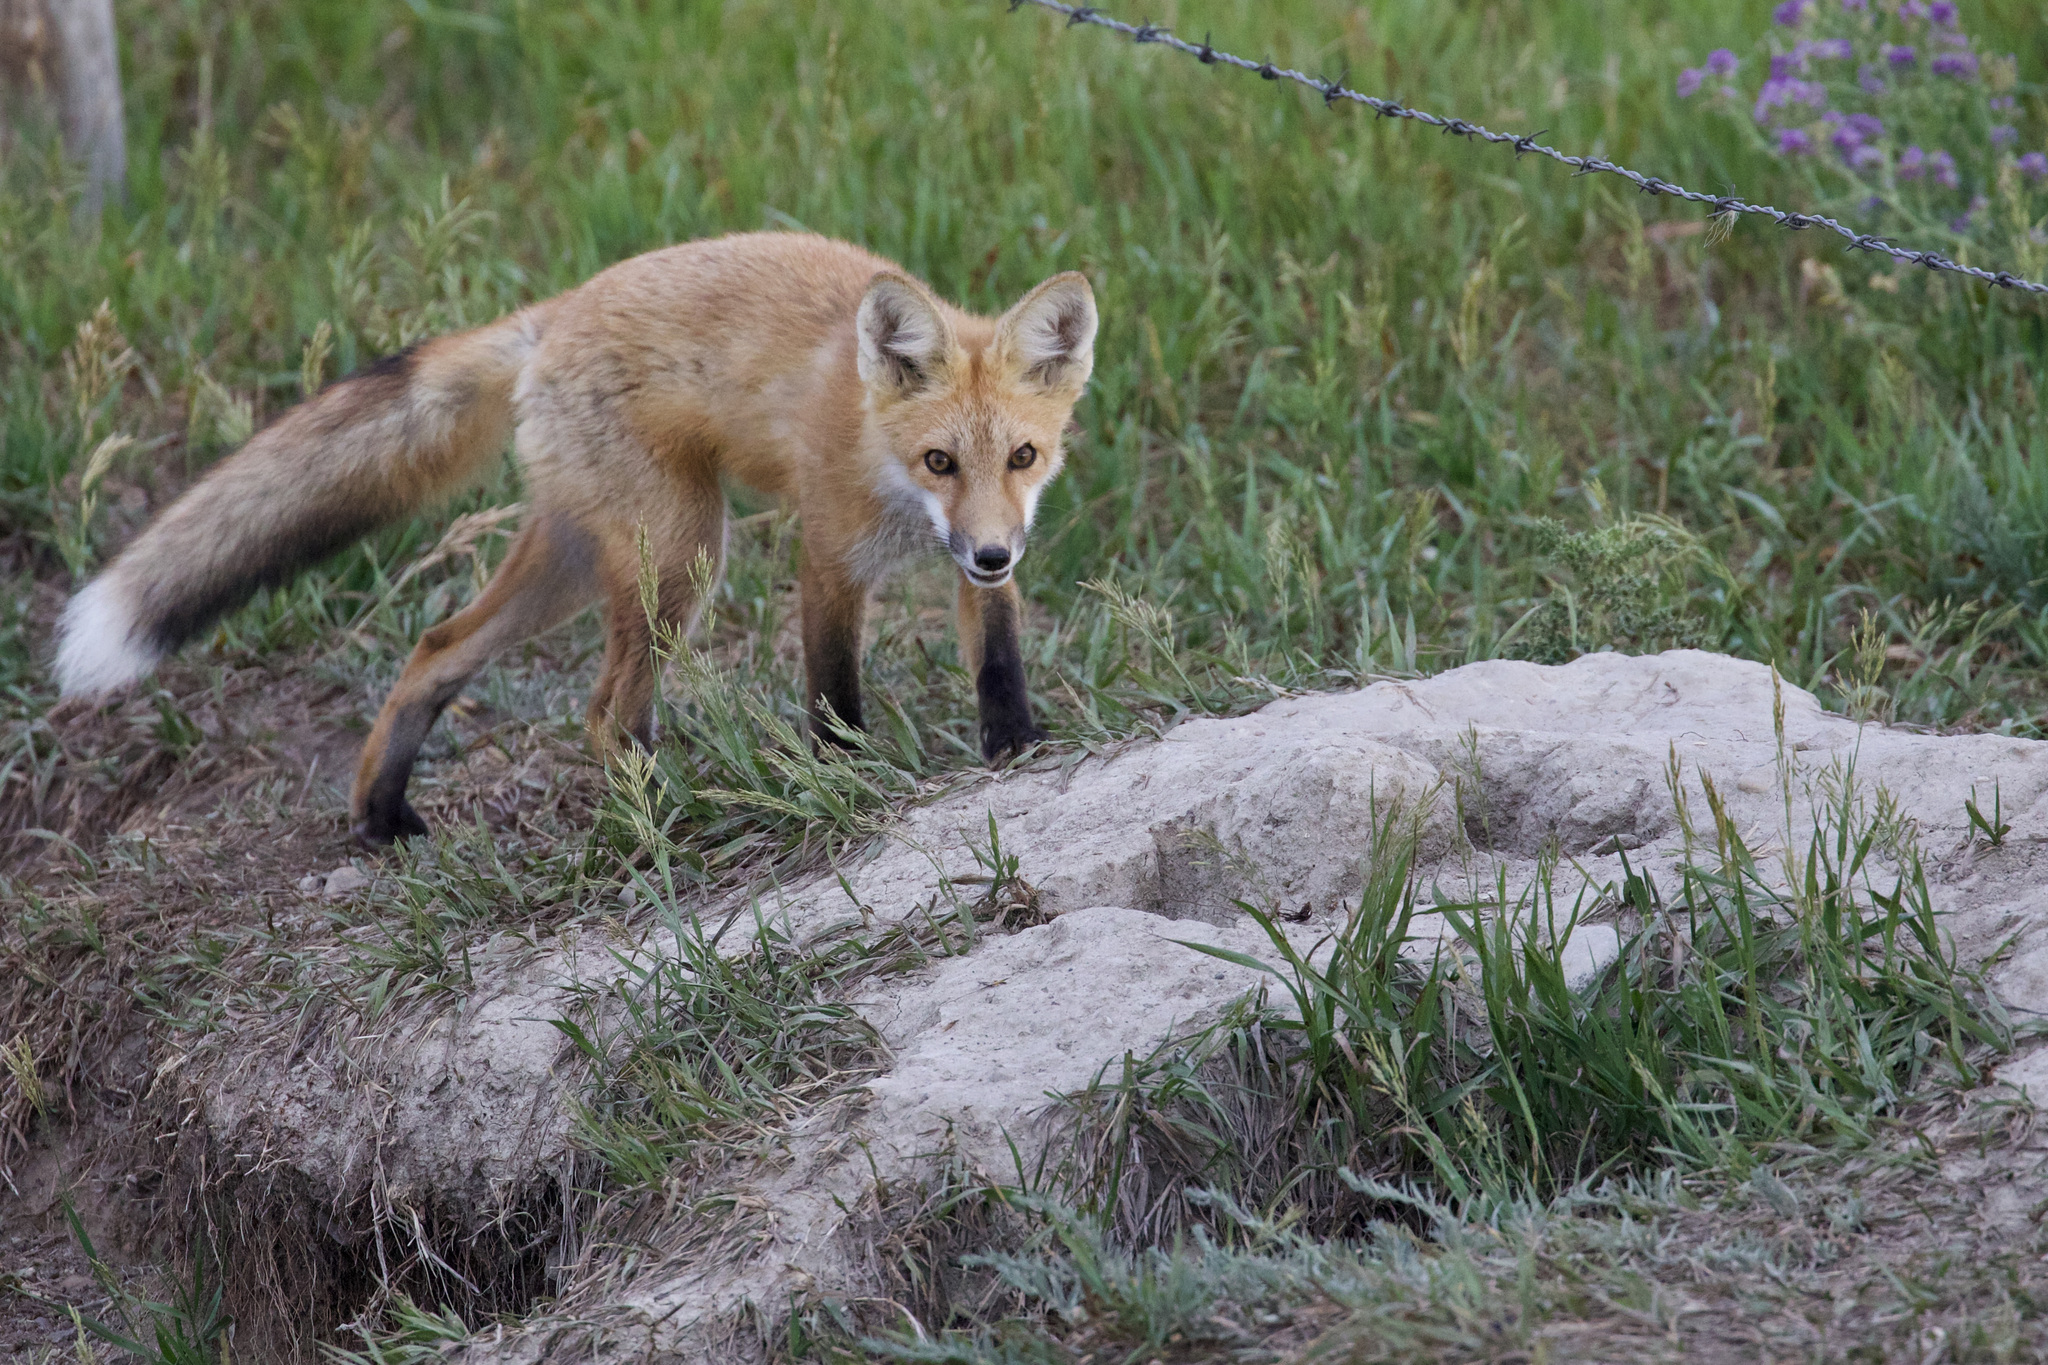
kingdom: Animalia
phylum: Chordata
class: Mammalia
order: Carnivora
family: Canidae
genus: Vulpes
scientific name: Vulpes vulpes
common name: Red fox
